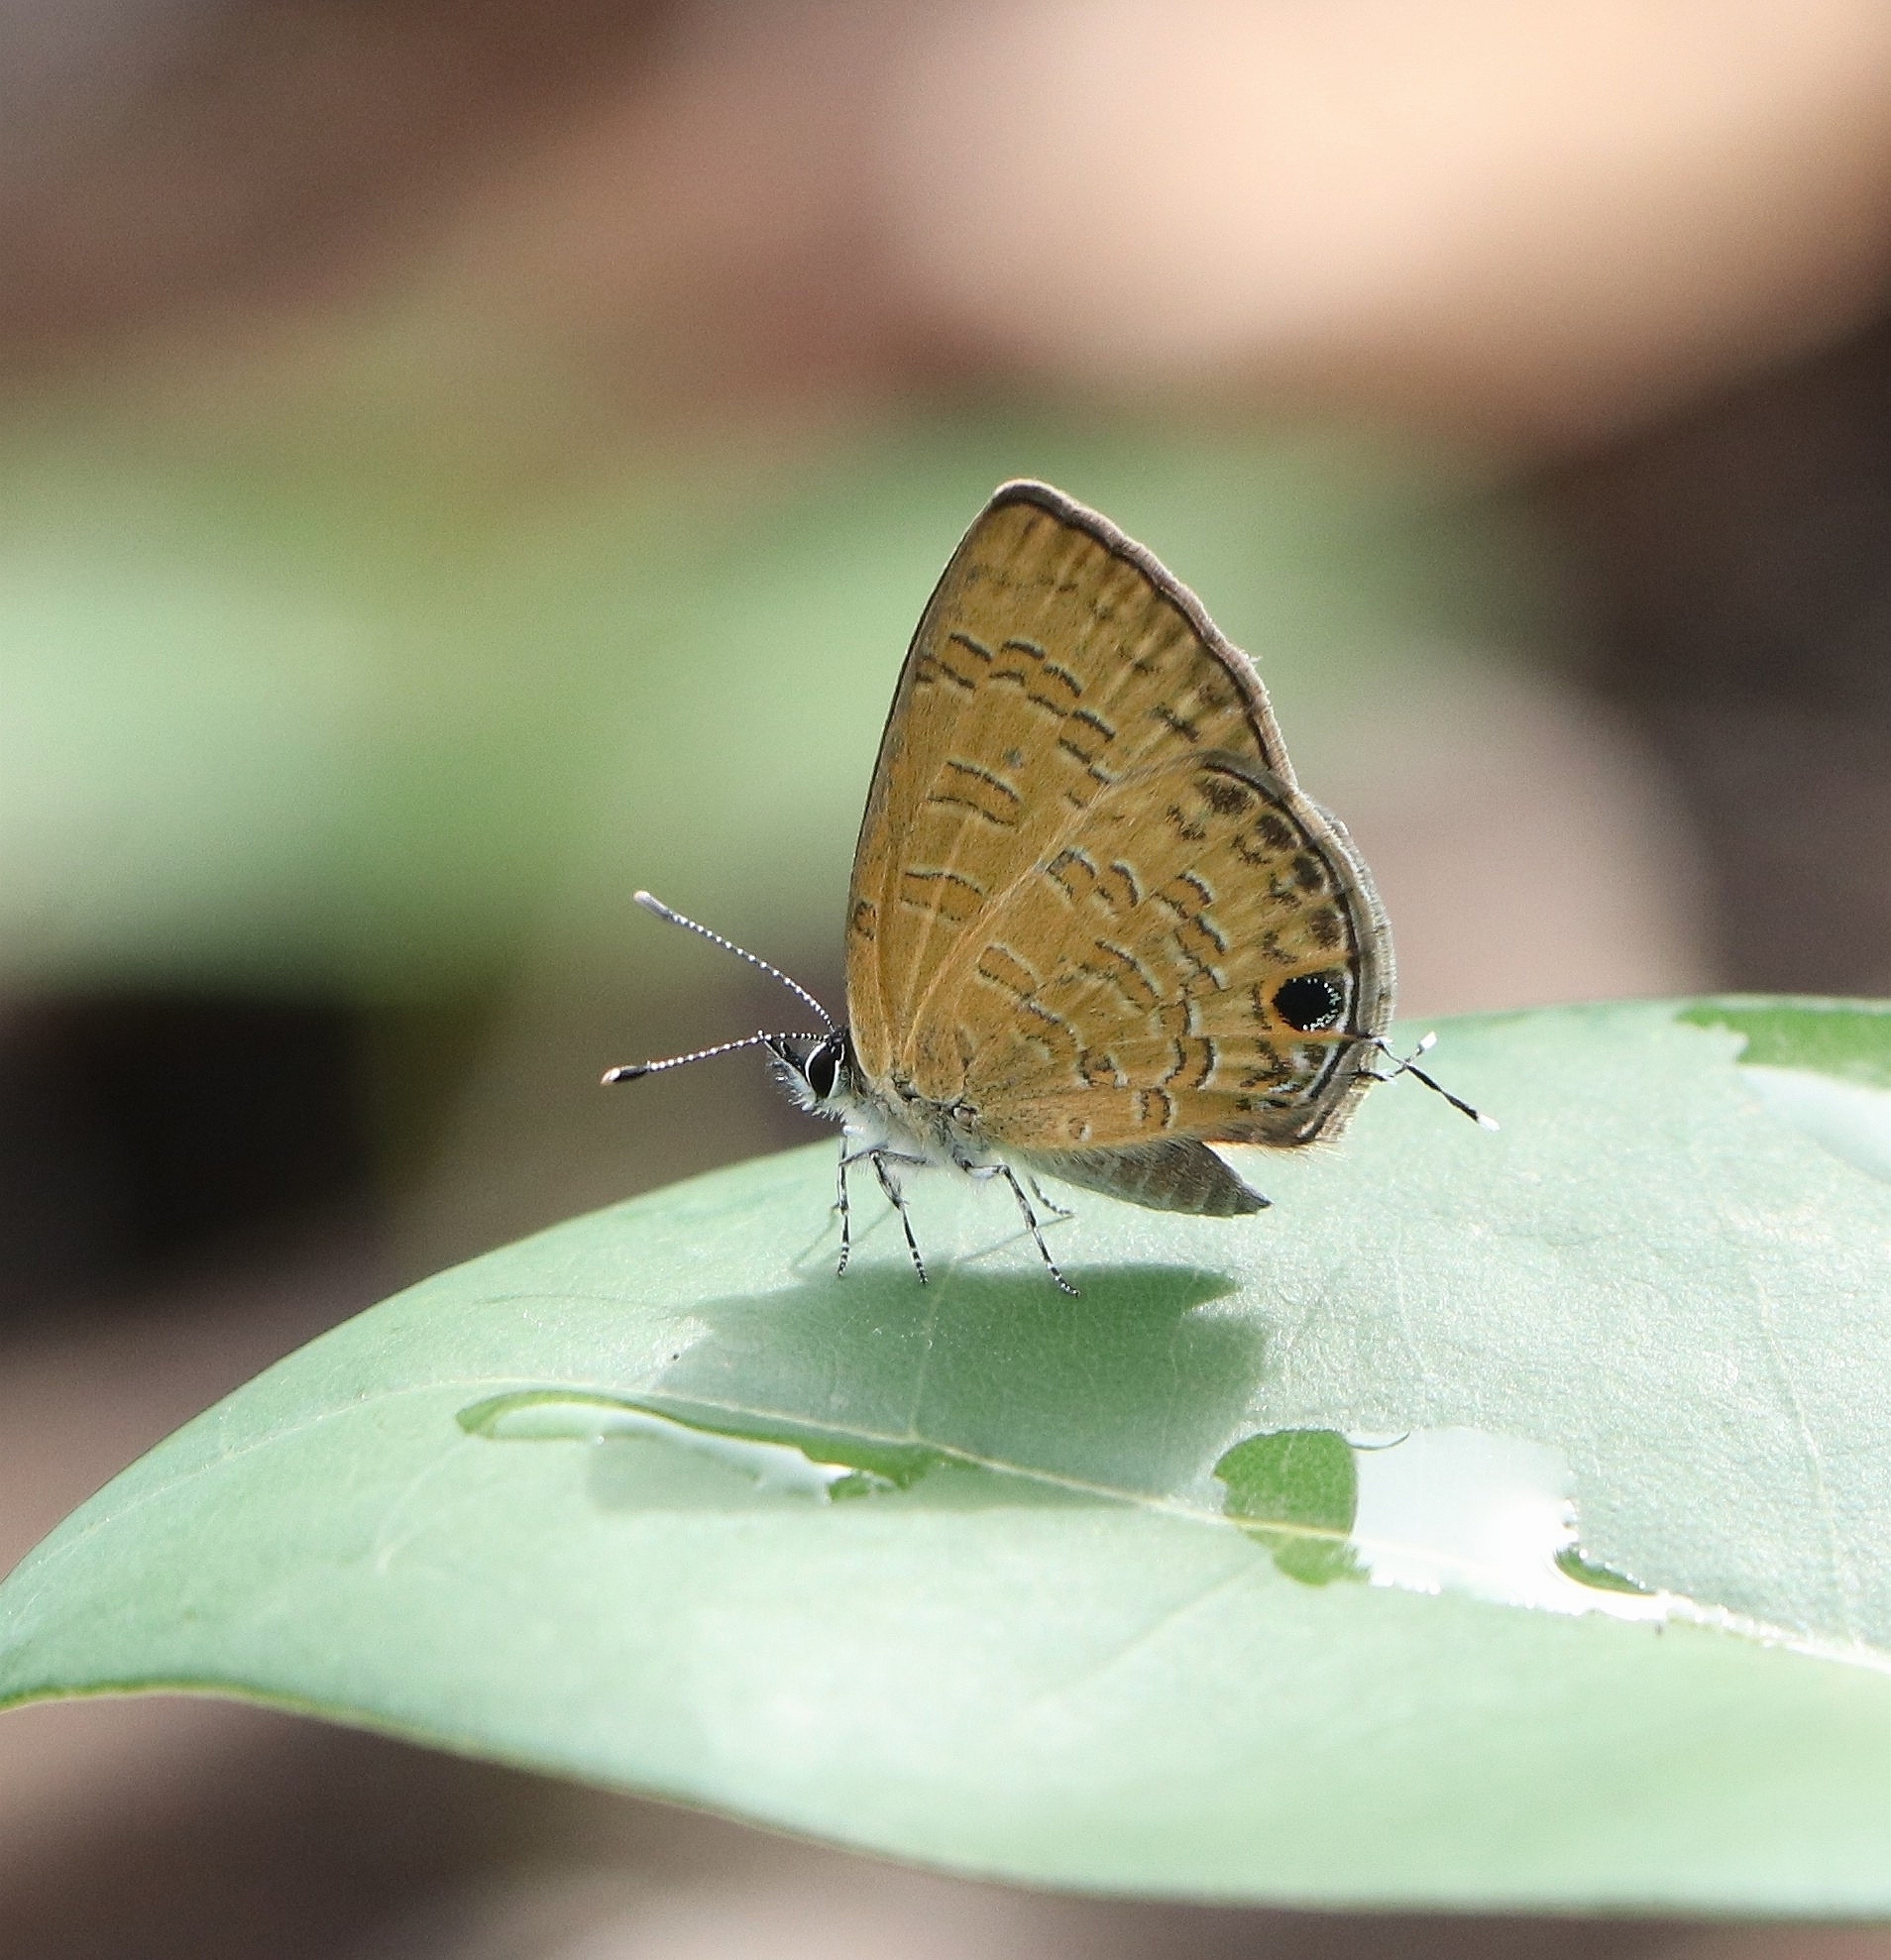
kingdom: Animalia
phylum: Arthropoda
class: Insecta
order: Lepidoptera
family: Lycaenidae
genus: Prosotas
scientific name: Prosotas nora
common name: Common line blue
